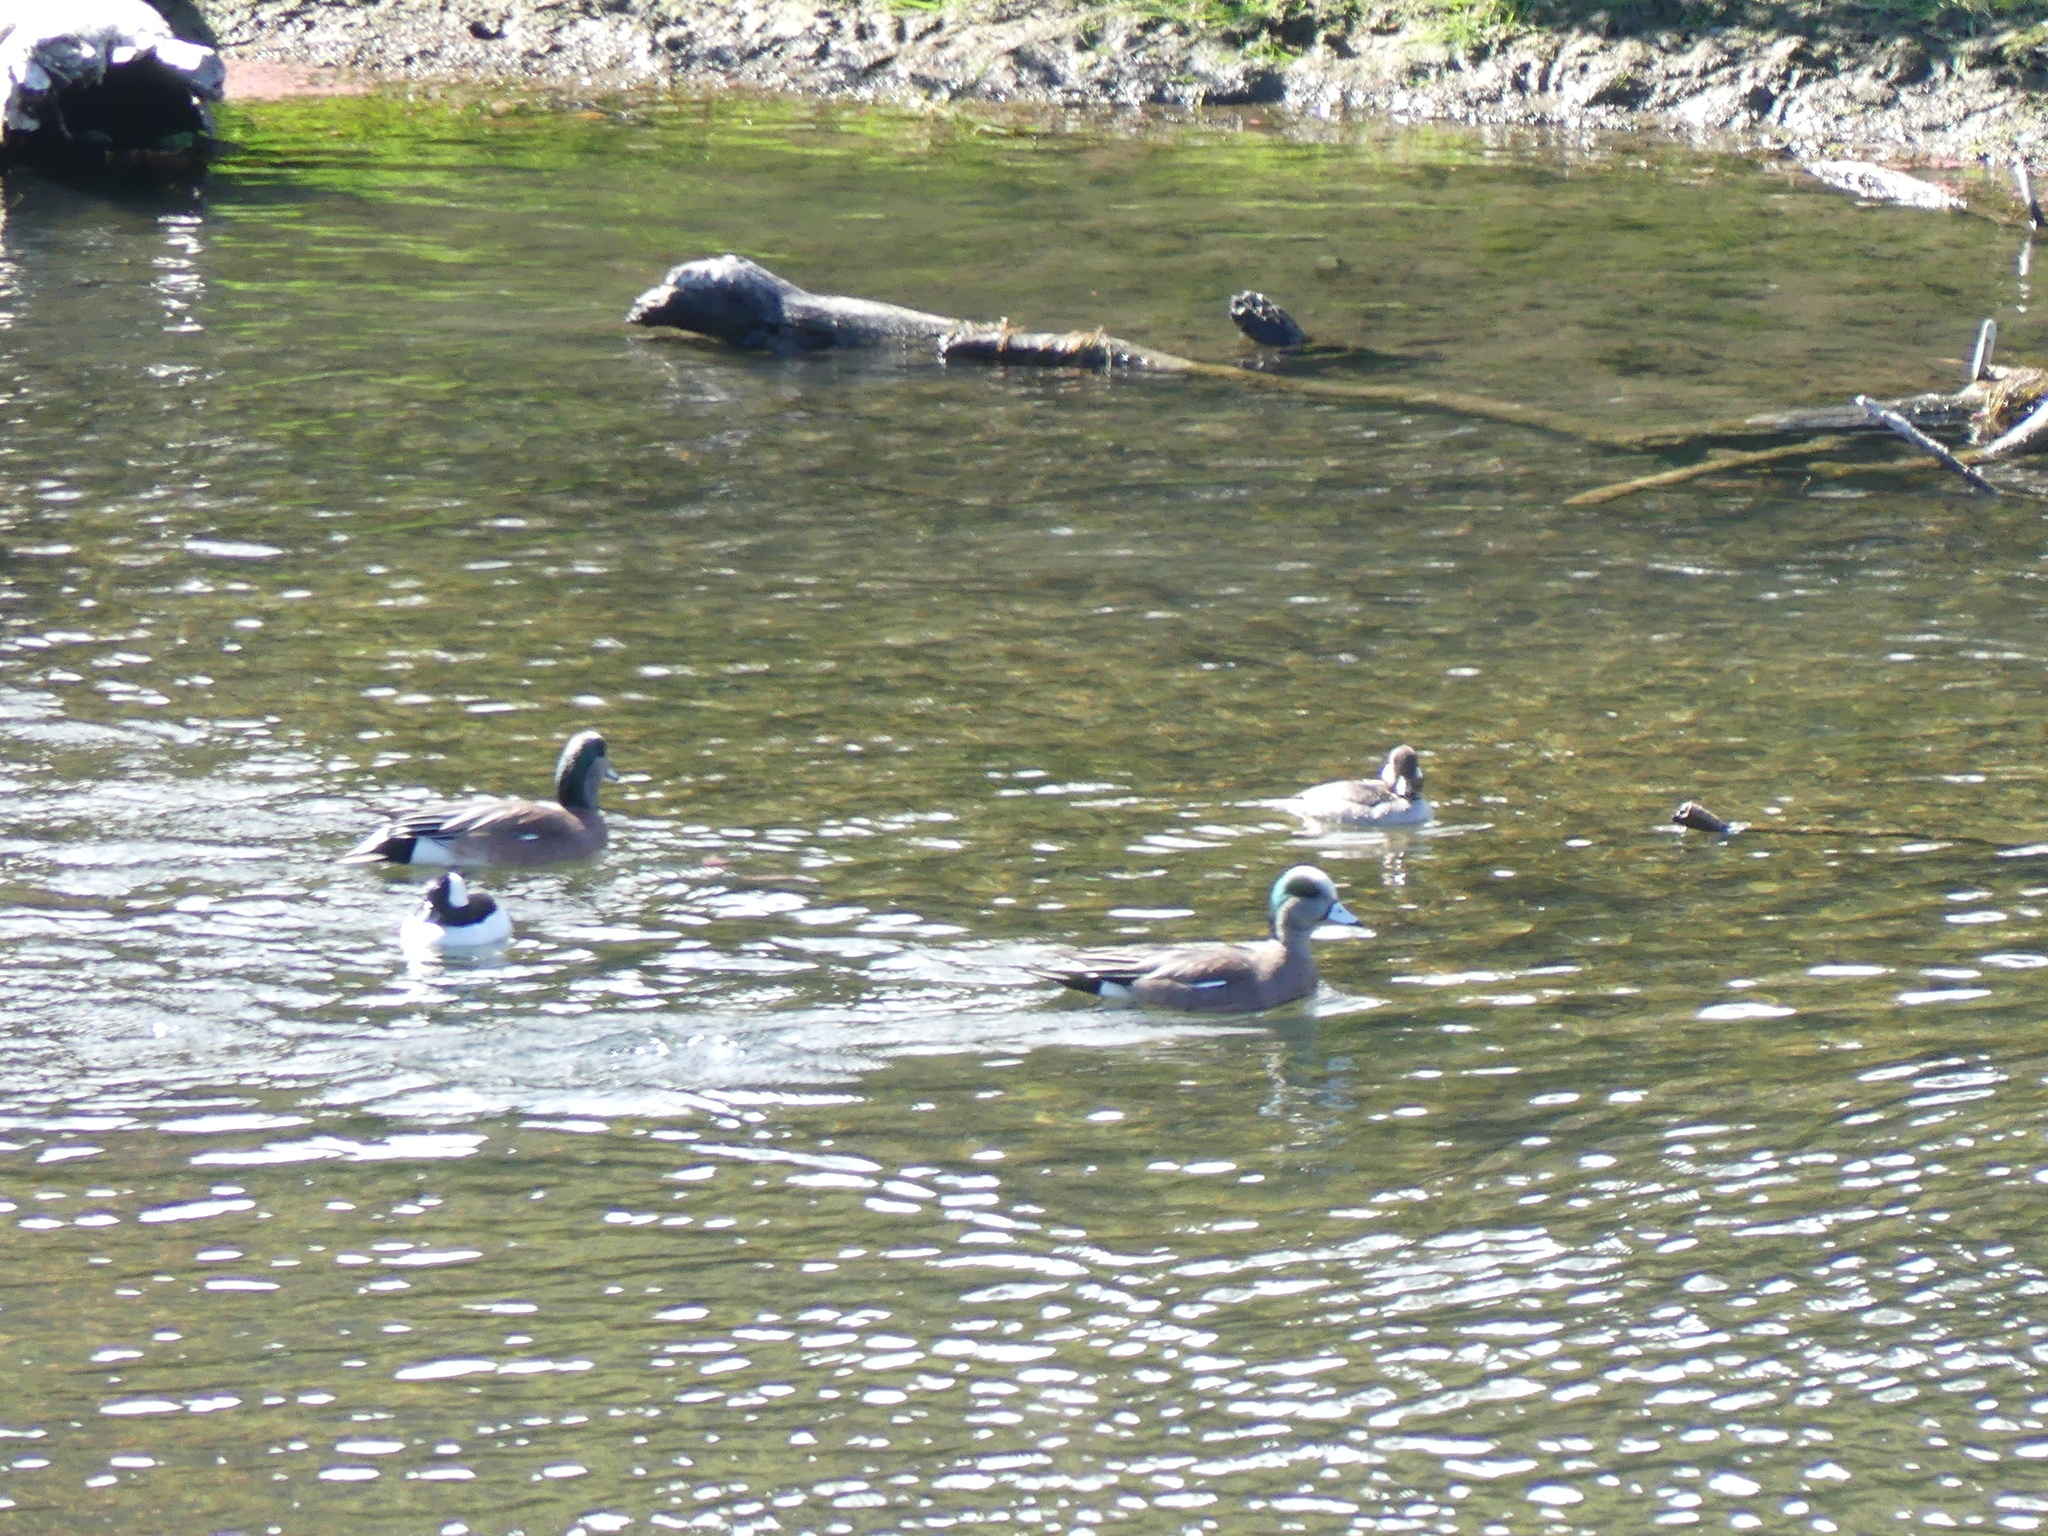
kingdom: Animalia
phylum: Chordata
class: Aves
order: Anseriformes
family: Anatidae
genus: Mareca
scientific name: Mareca americana
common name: American wigeon
